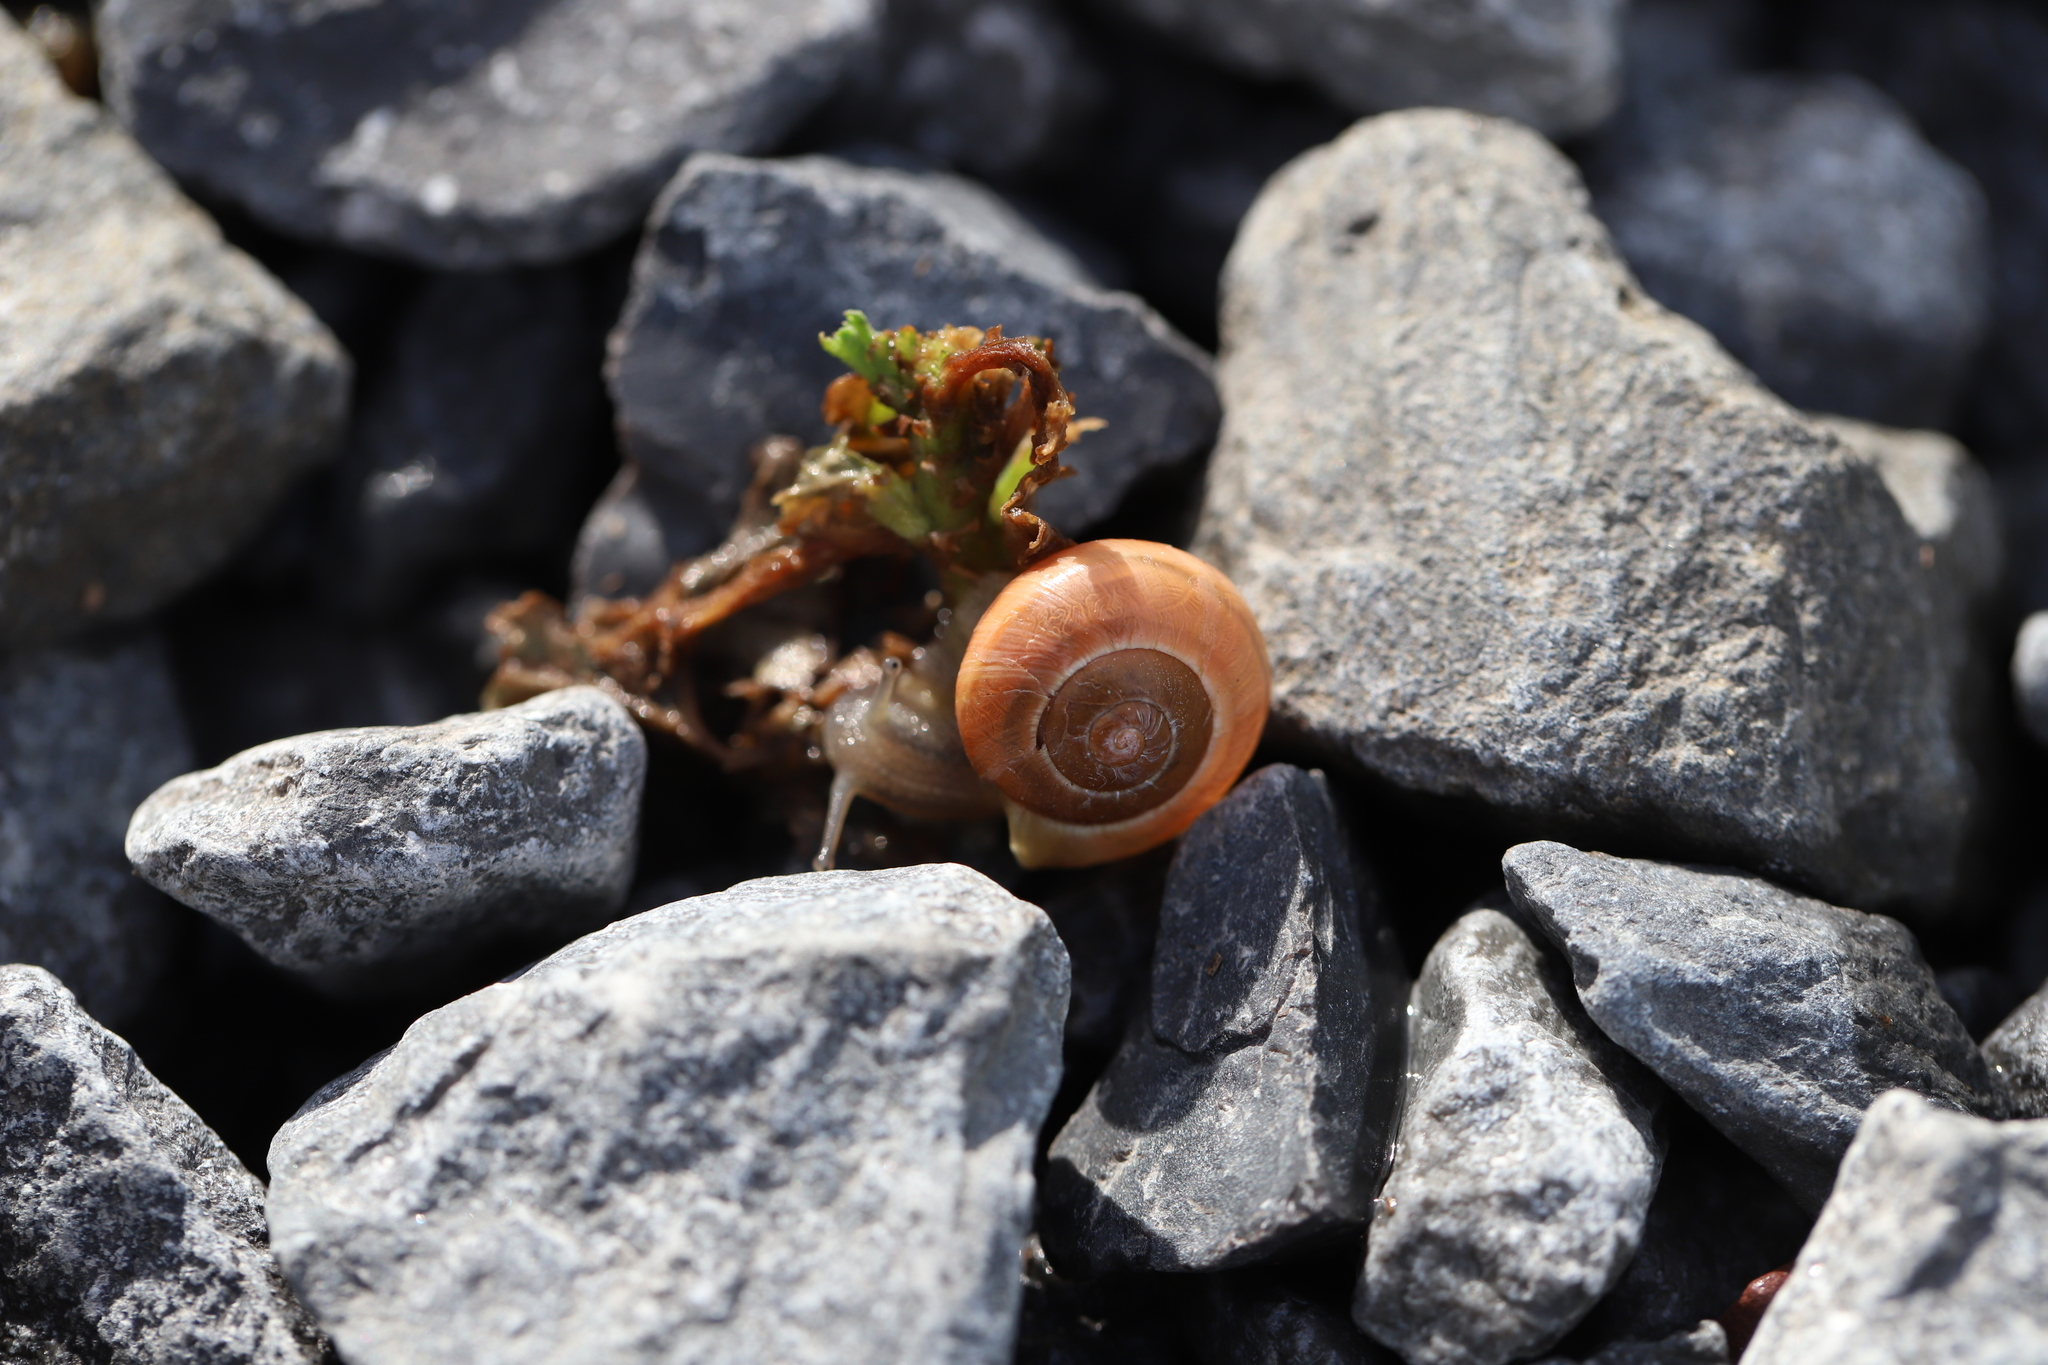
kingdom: Animalia
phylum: Mollusca
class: Gastropoda
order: Stylommatophora
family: Helicidae
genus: Cepaea
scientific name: Cepaea
